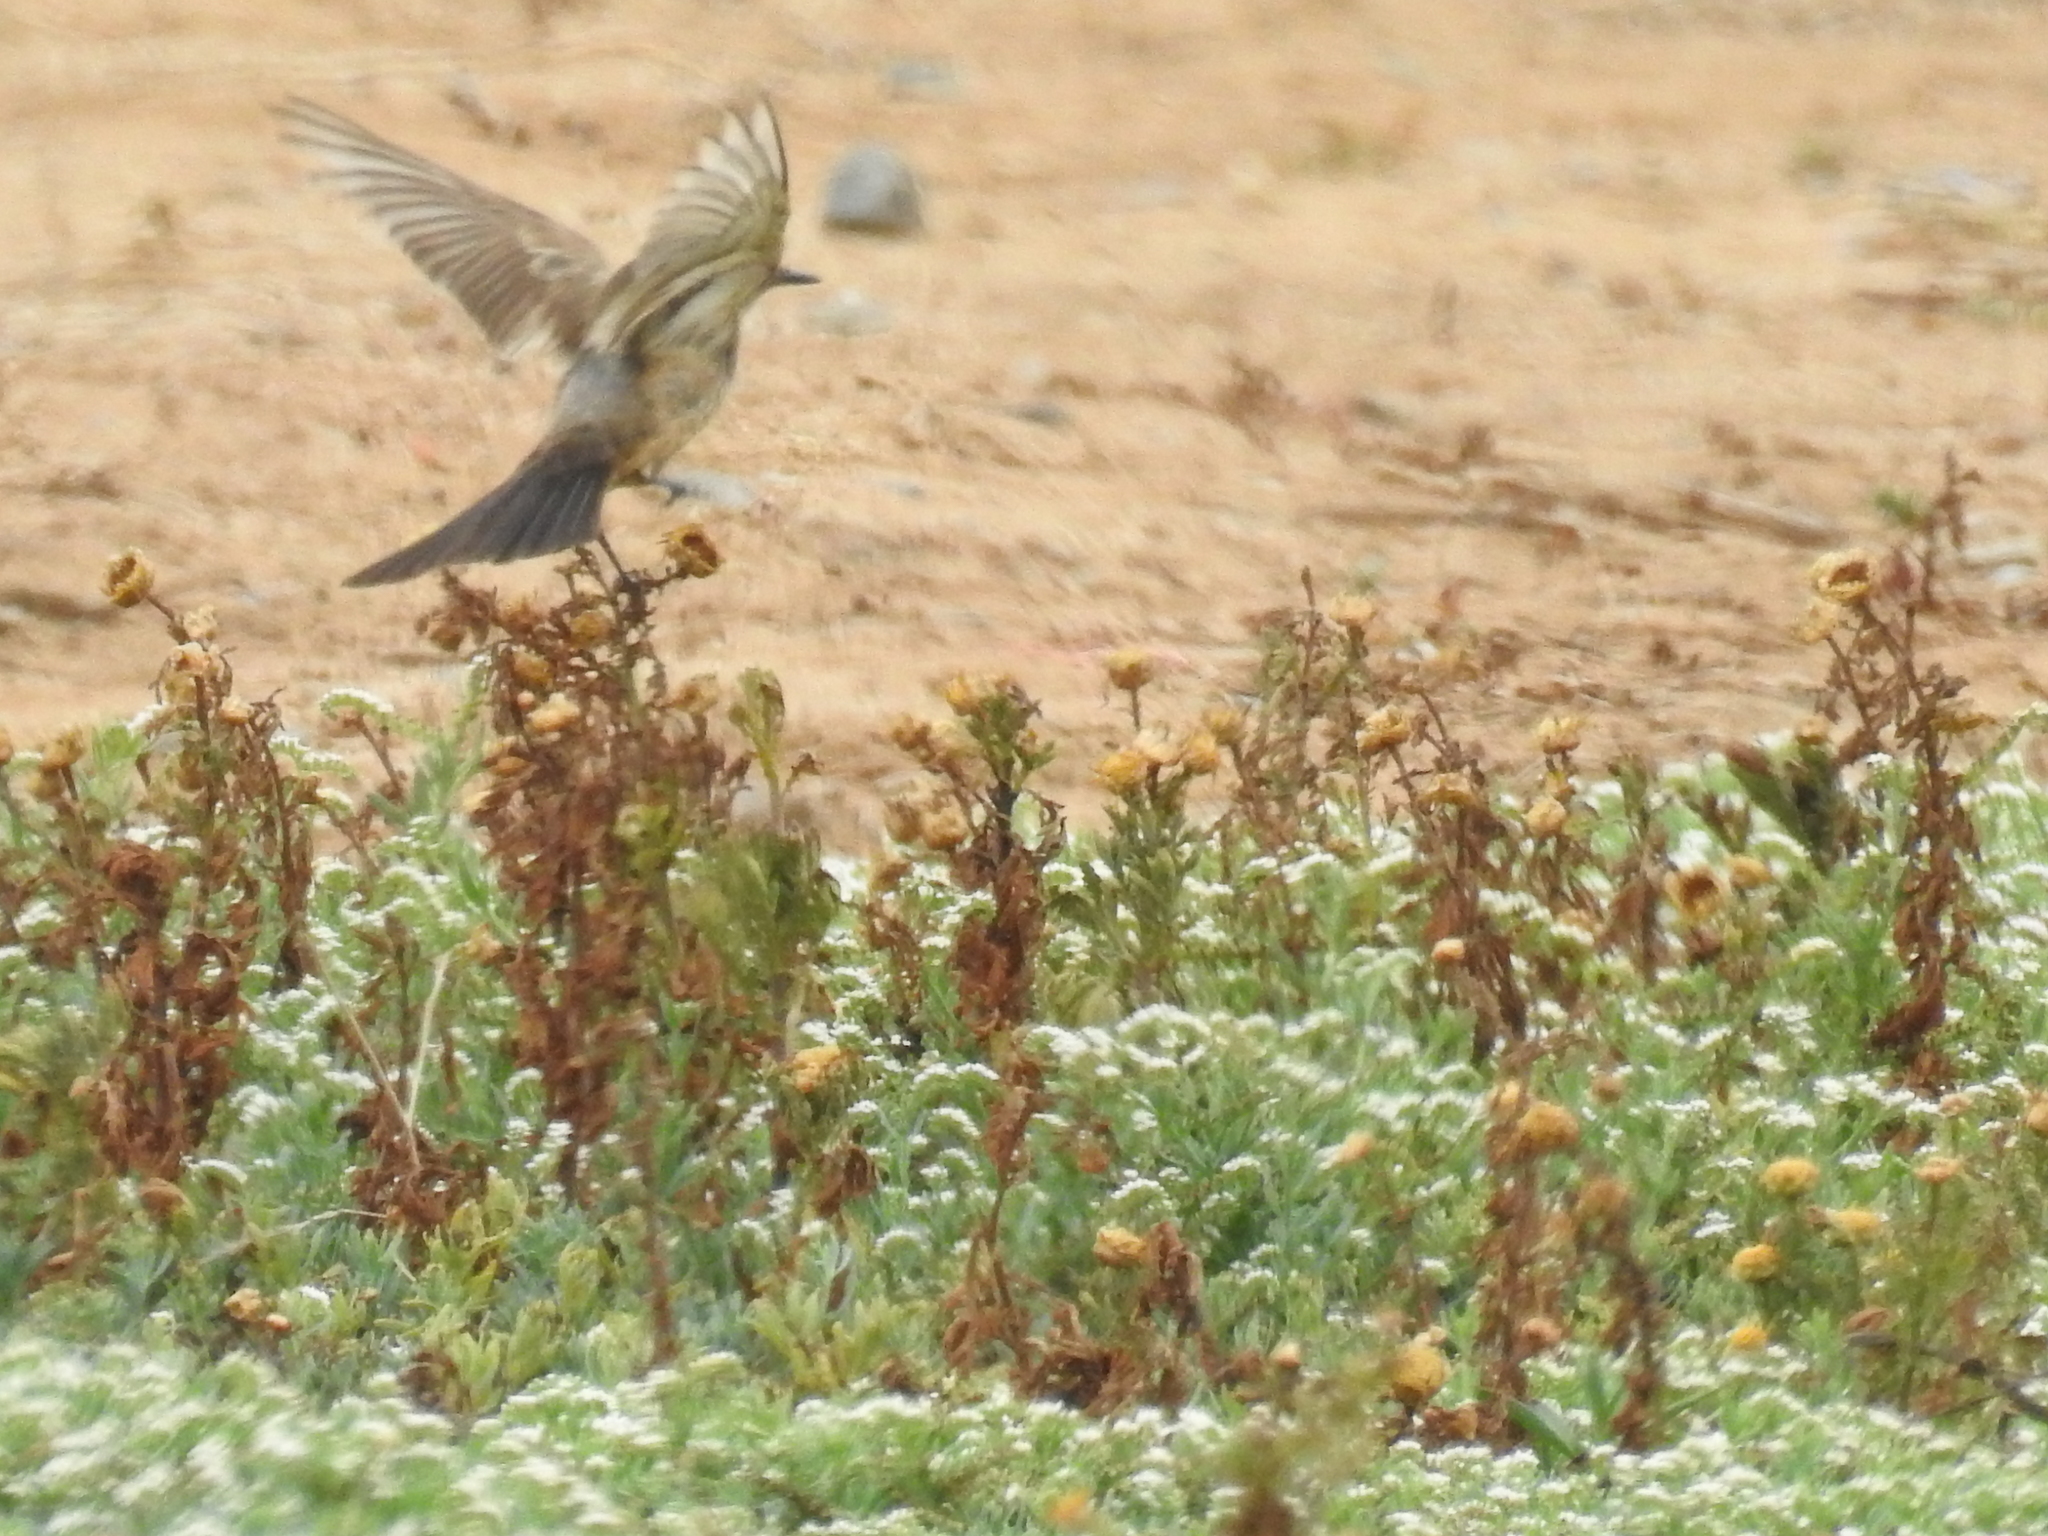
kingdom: Animalia
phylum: Chordata
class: Aves
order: Passeriformes
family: Tyrannidae
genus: Sayornis
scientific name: Sayornis saya
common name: Say's phoebe
